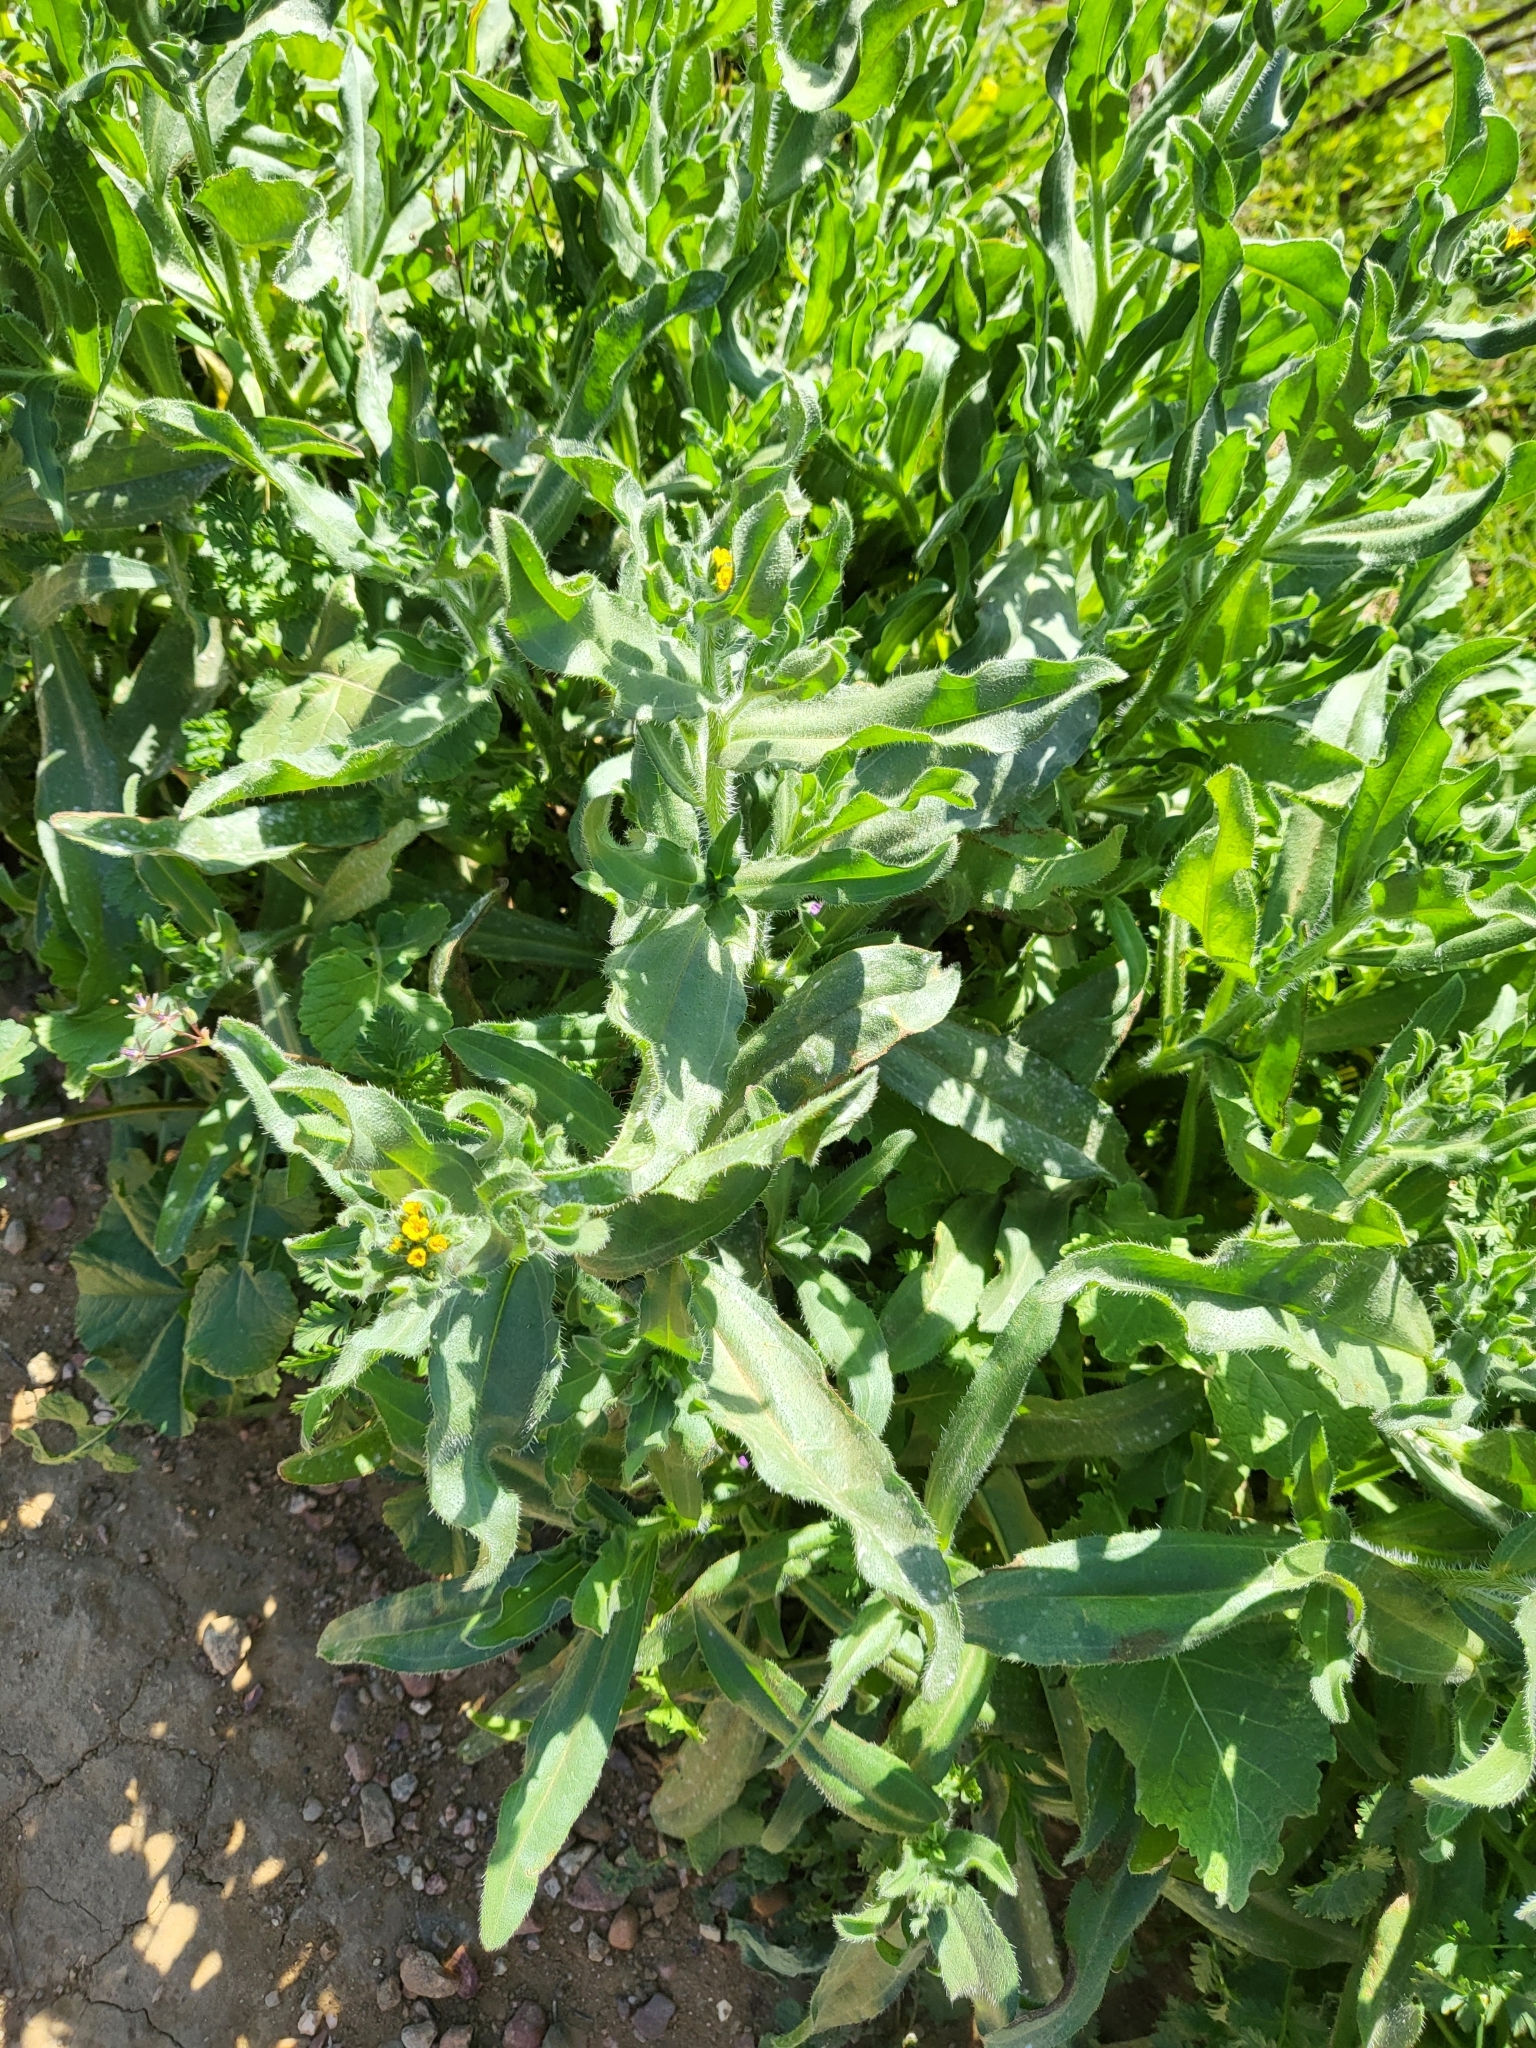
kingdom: Plantae
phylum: Tracheophyta
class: Magnoliopsida
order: Boraginales
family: Boraginaceae
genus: Amsinckia
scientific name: Amsinckia menziesii
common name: Menzies' fiddleneck
